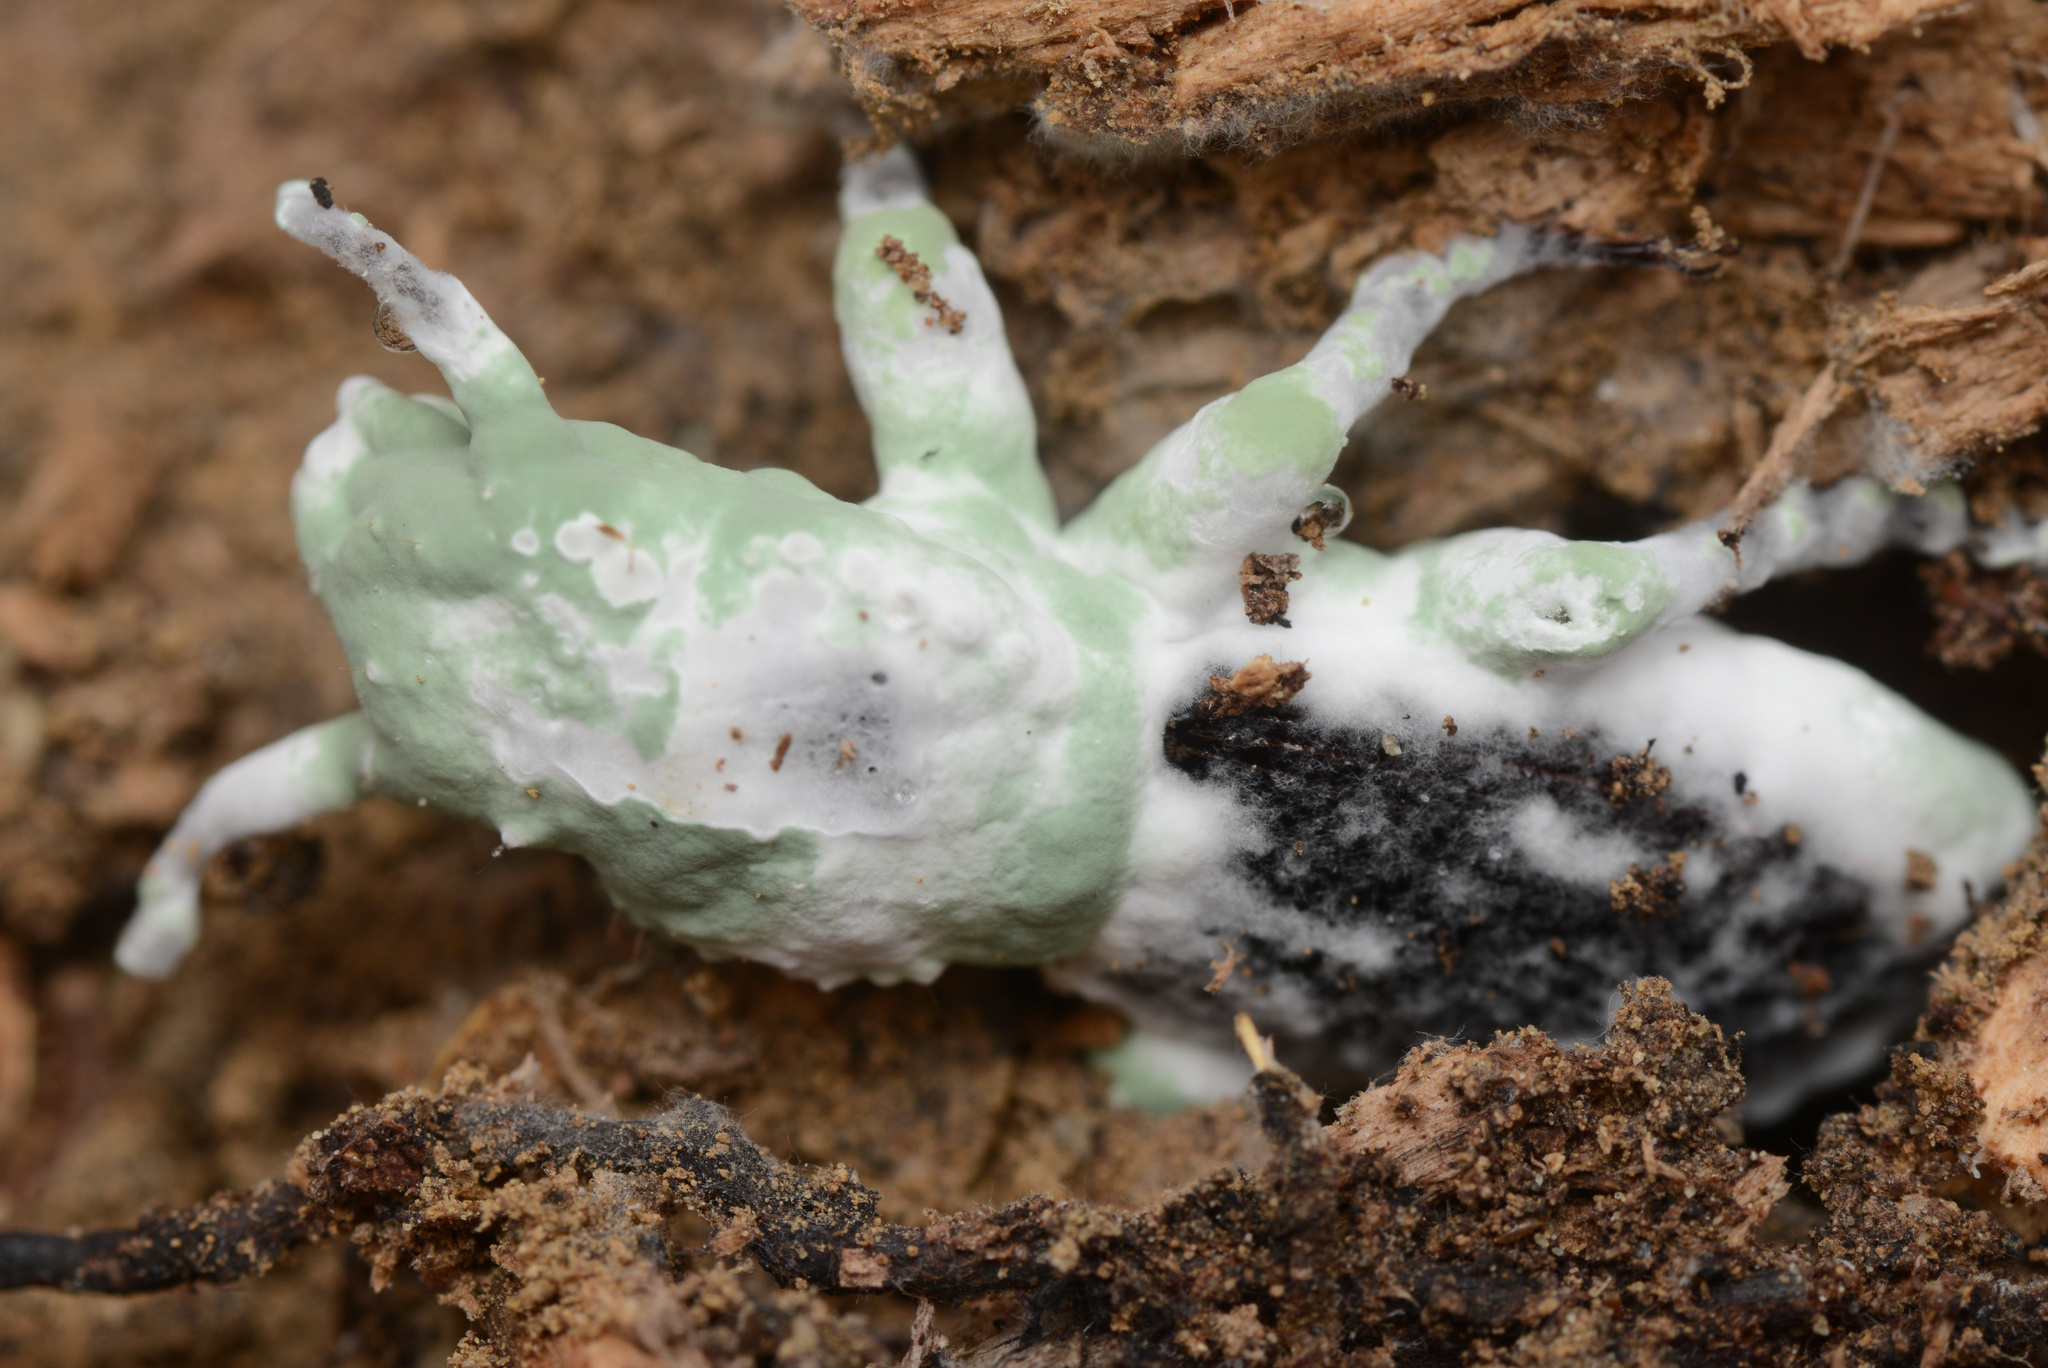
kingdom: Fungi
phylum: Ascomycota
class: Sordariomycetes
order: Hypocreales
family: Clavicipitaceae
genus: Metarhizium
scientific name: Metarhizium
